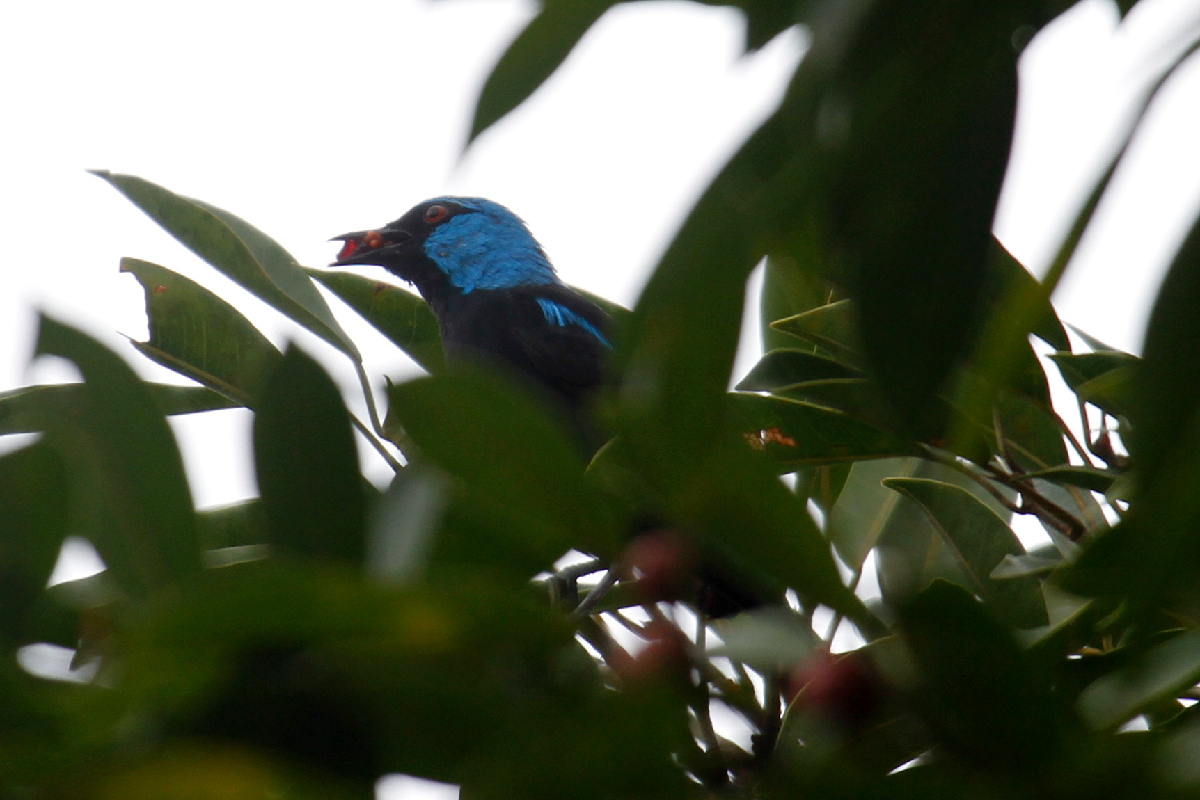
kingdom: Animalia
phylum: Chordata
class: Aves
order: Passeriformes
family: Thraupidae
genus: Dacnis
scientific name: Dacnis venusta
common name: Scarlet-thighed dacnis
